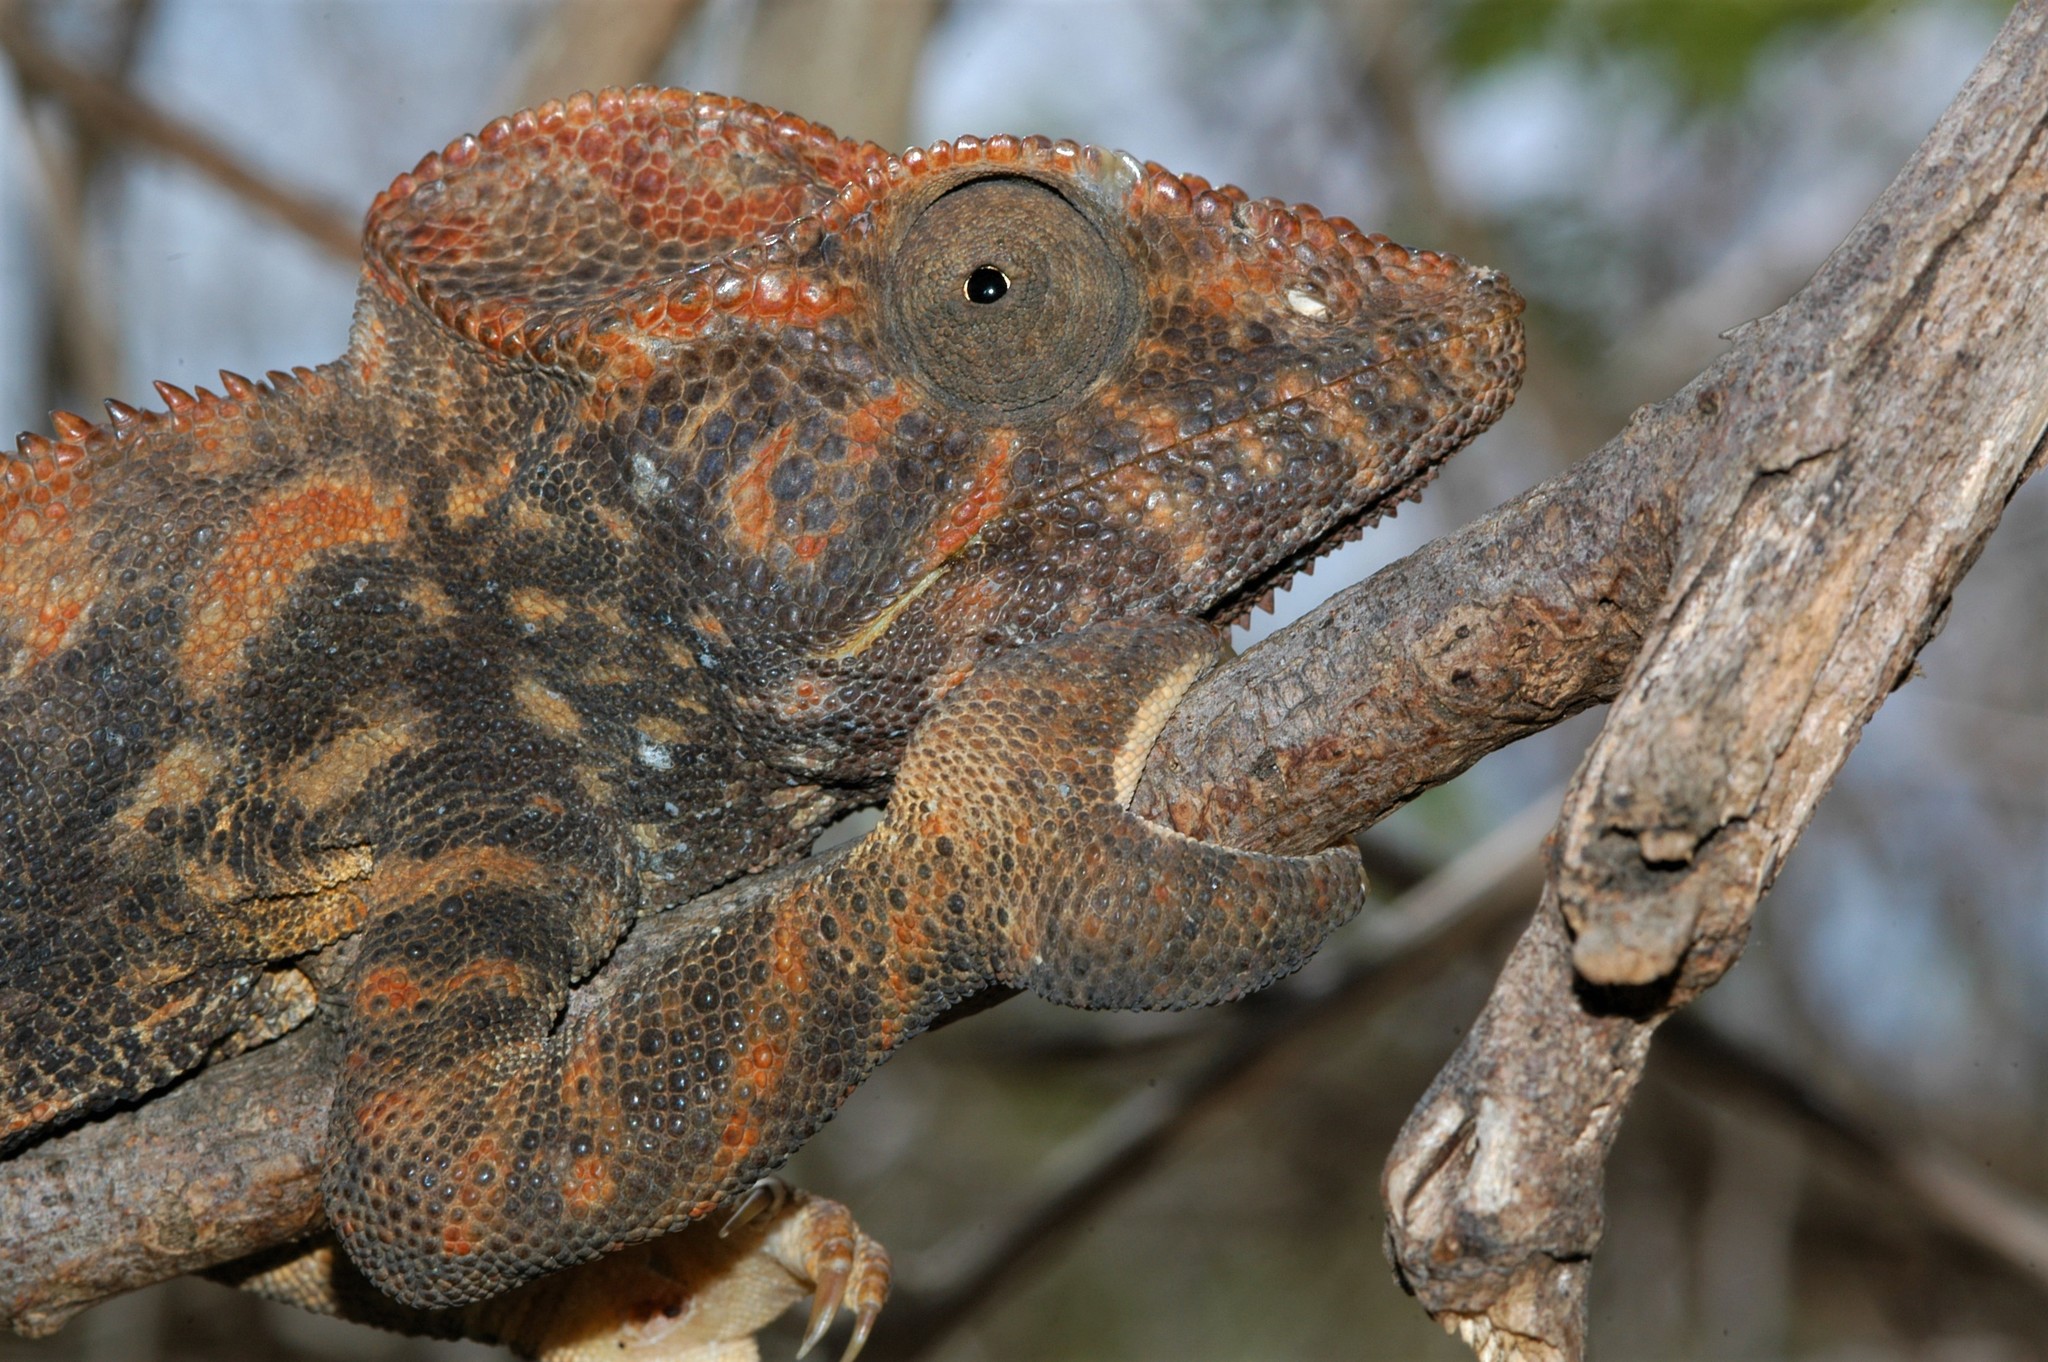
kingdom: Animalia
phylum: Chordata
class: Squamata
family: Chamaeleonidae
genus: Furcifer
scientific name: Furcifer oustaleti
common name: Oustalet's chameleon
